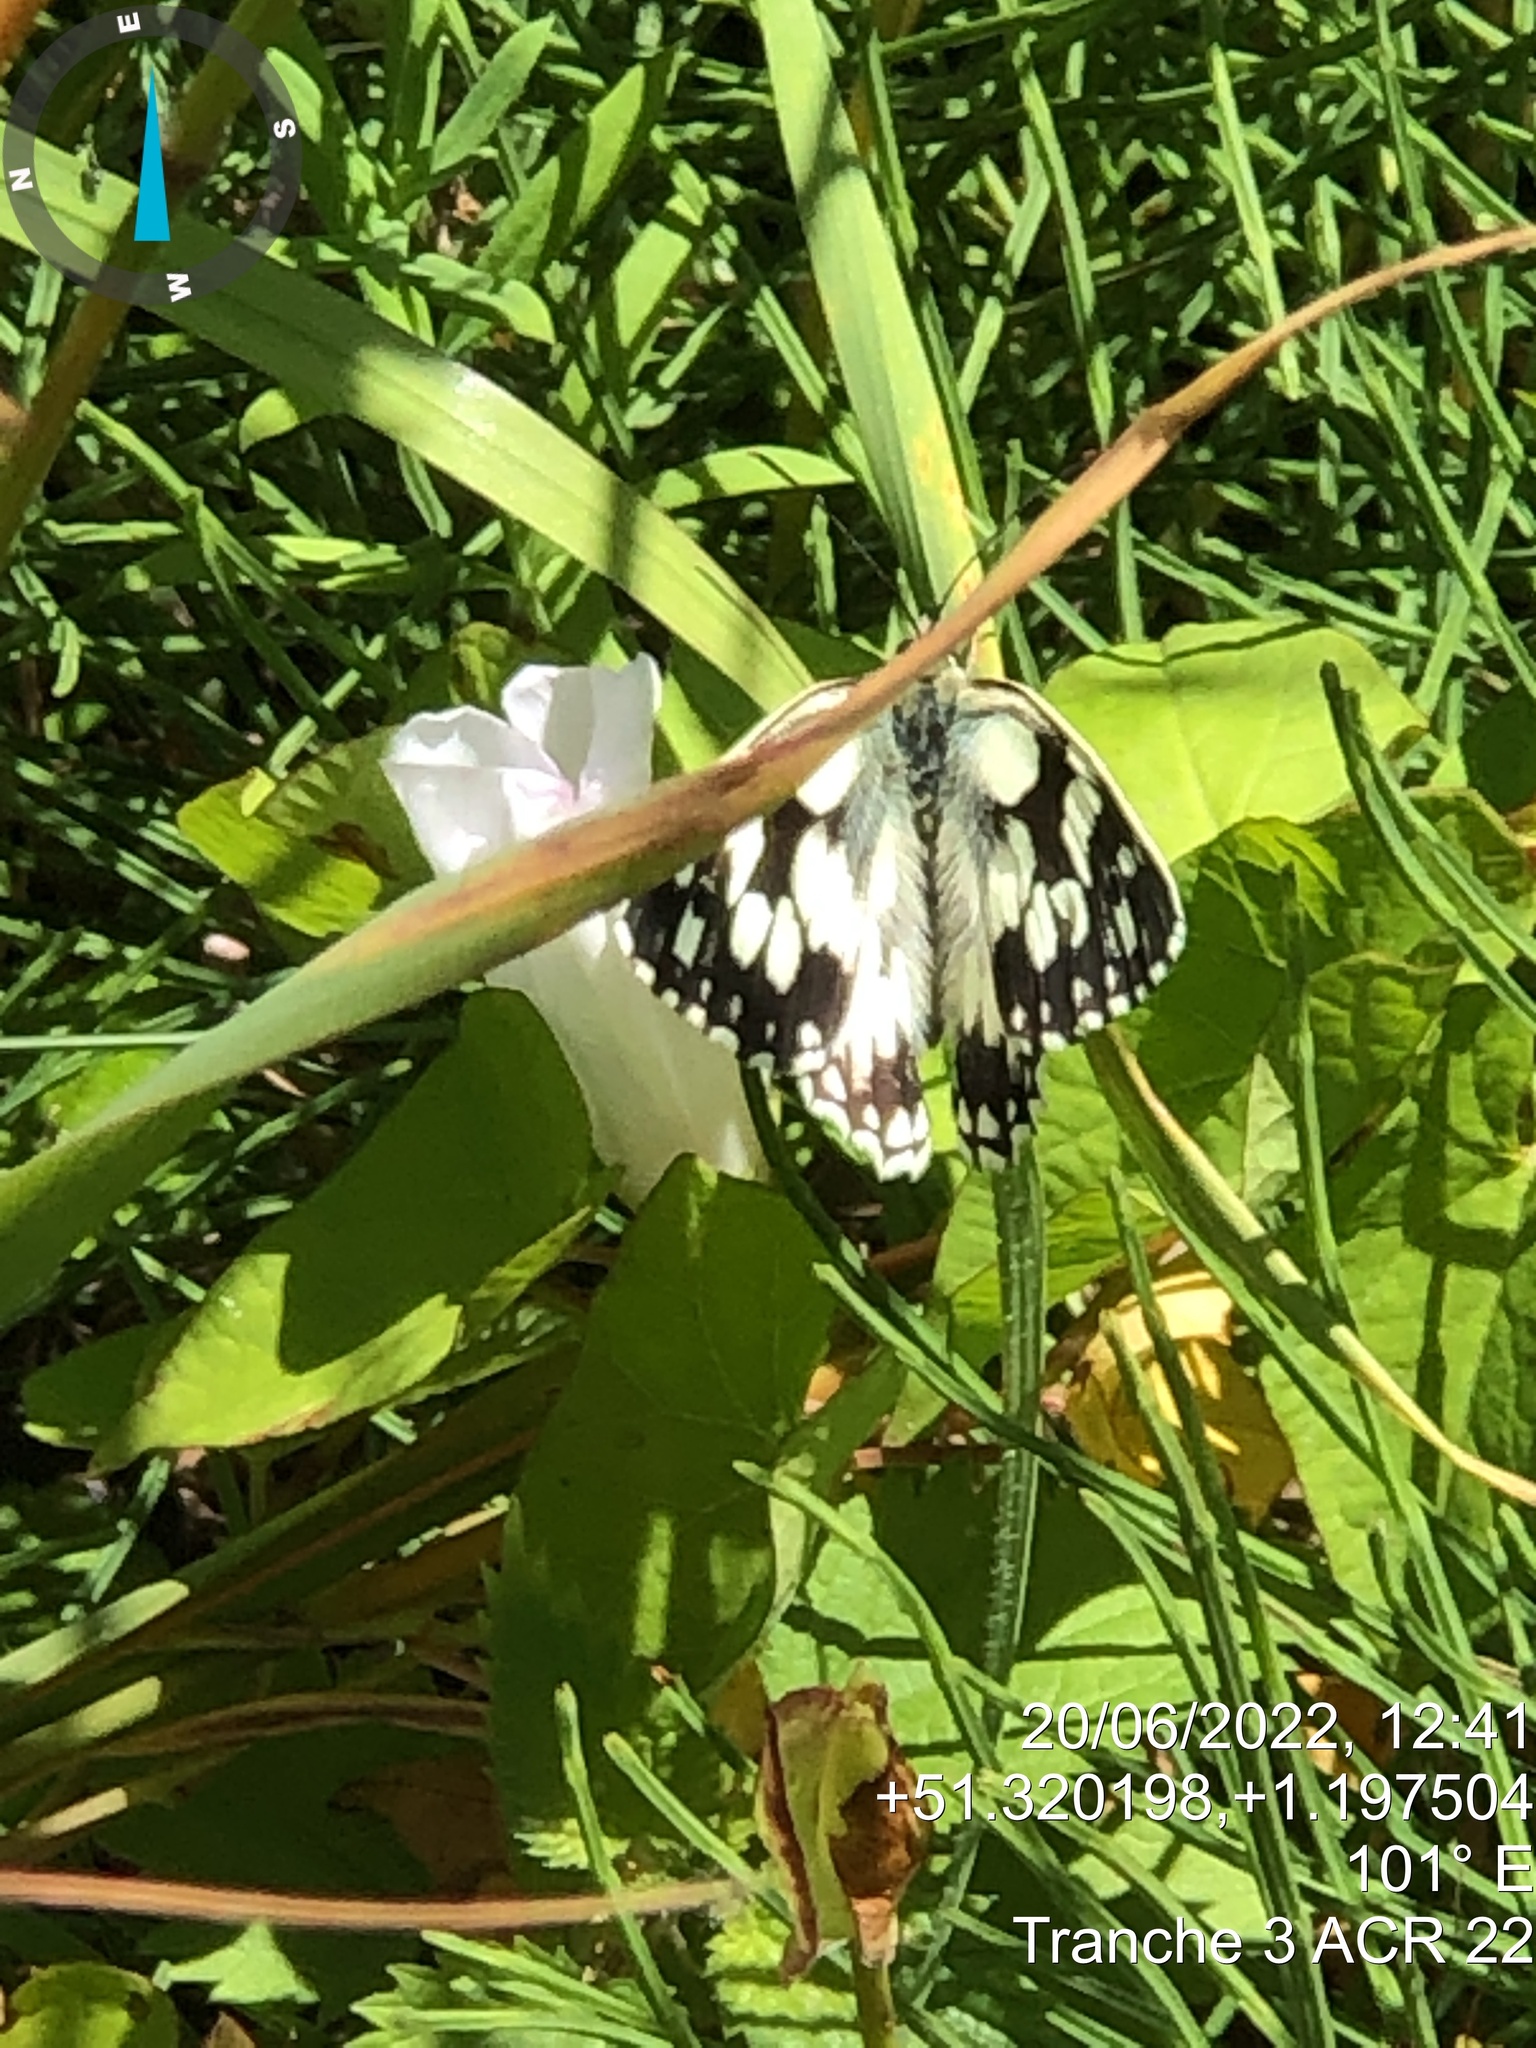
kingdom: Animalia
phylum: Arthropoda
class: Insecta
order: Lepidoptera
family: Nymphalidae
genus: Melanargia
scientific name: Melanargia galathea
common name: Marbled white
